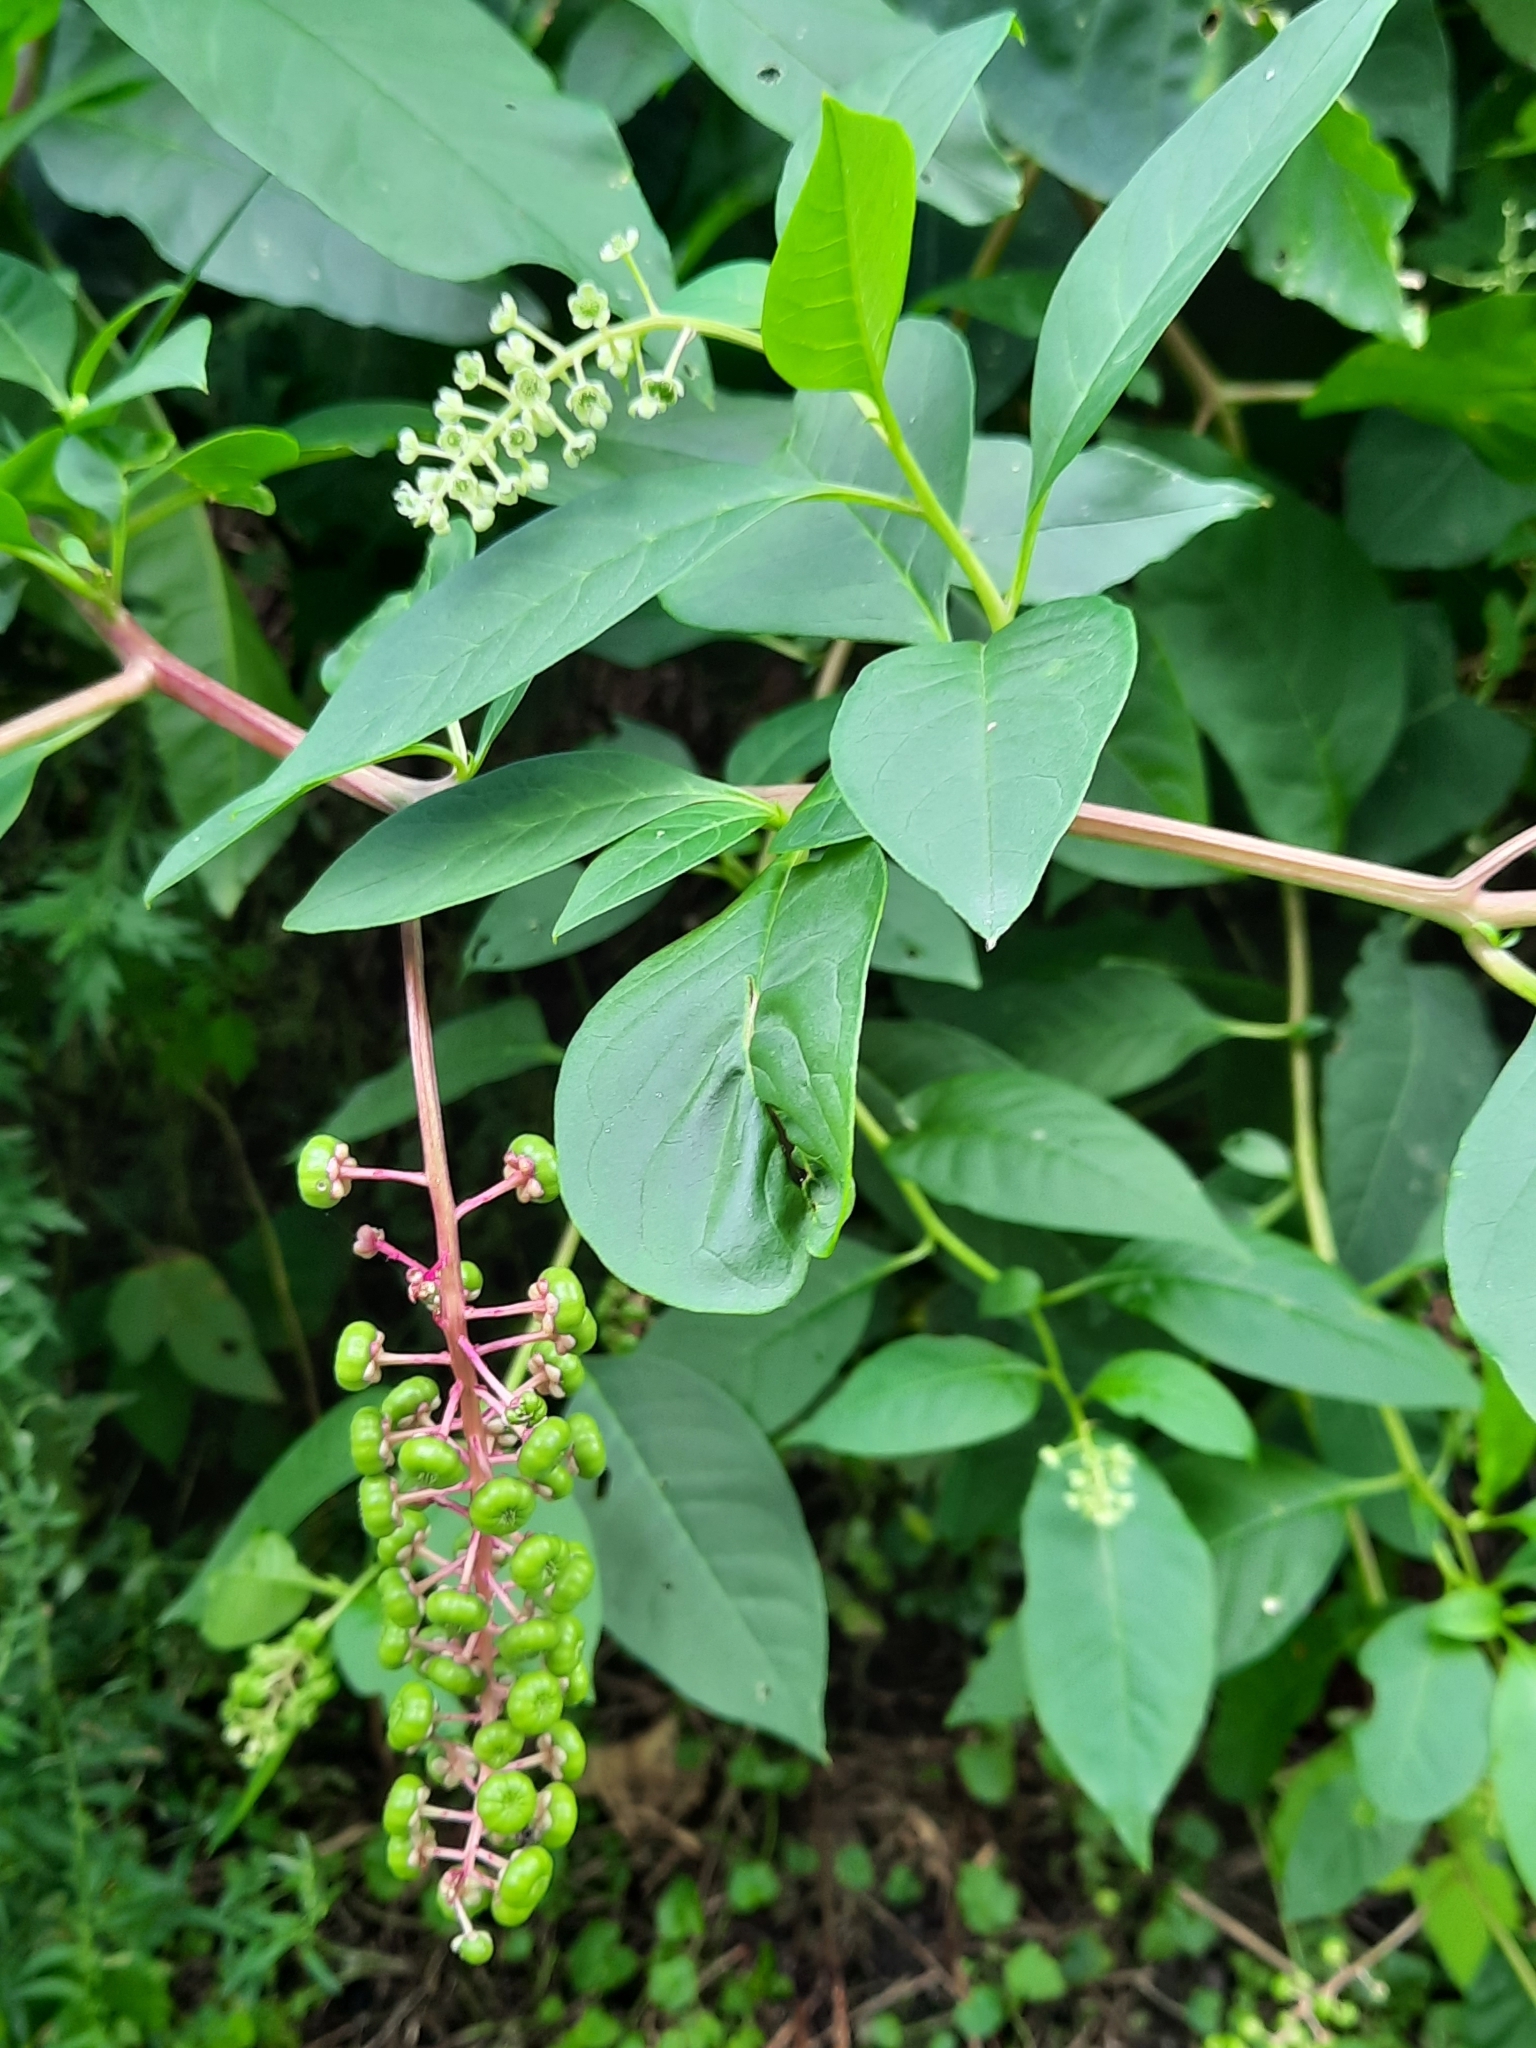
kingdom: Plantae
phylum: Tracheophyta
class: Magnoliopsida
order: Caryophyllales
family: Phytolaccaceae
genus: Phytolacca
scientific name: Phytolacca americana
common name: American pokeweed
